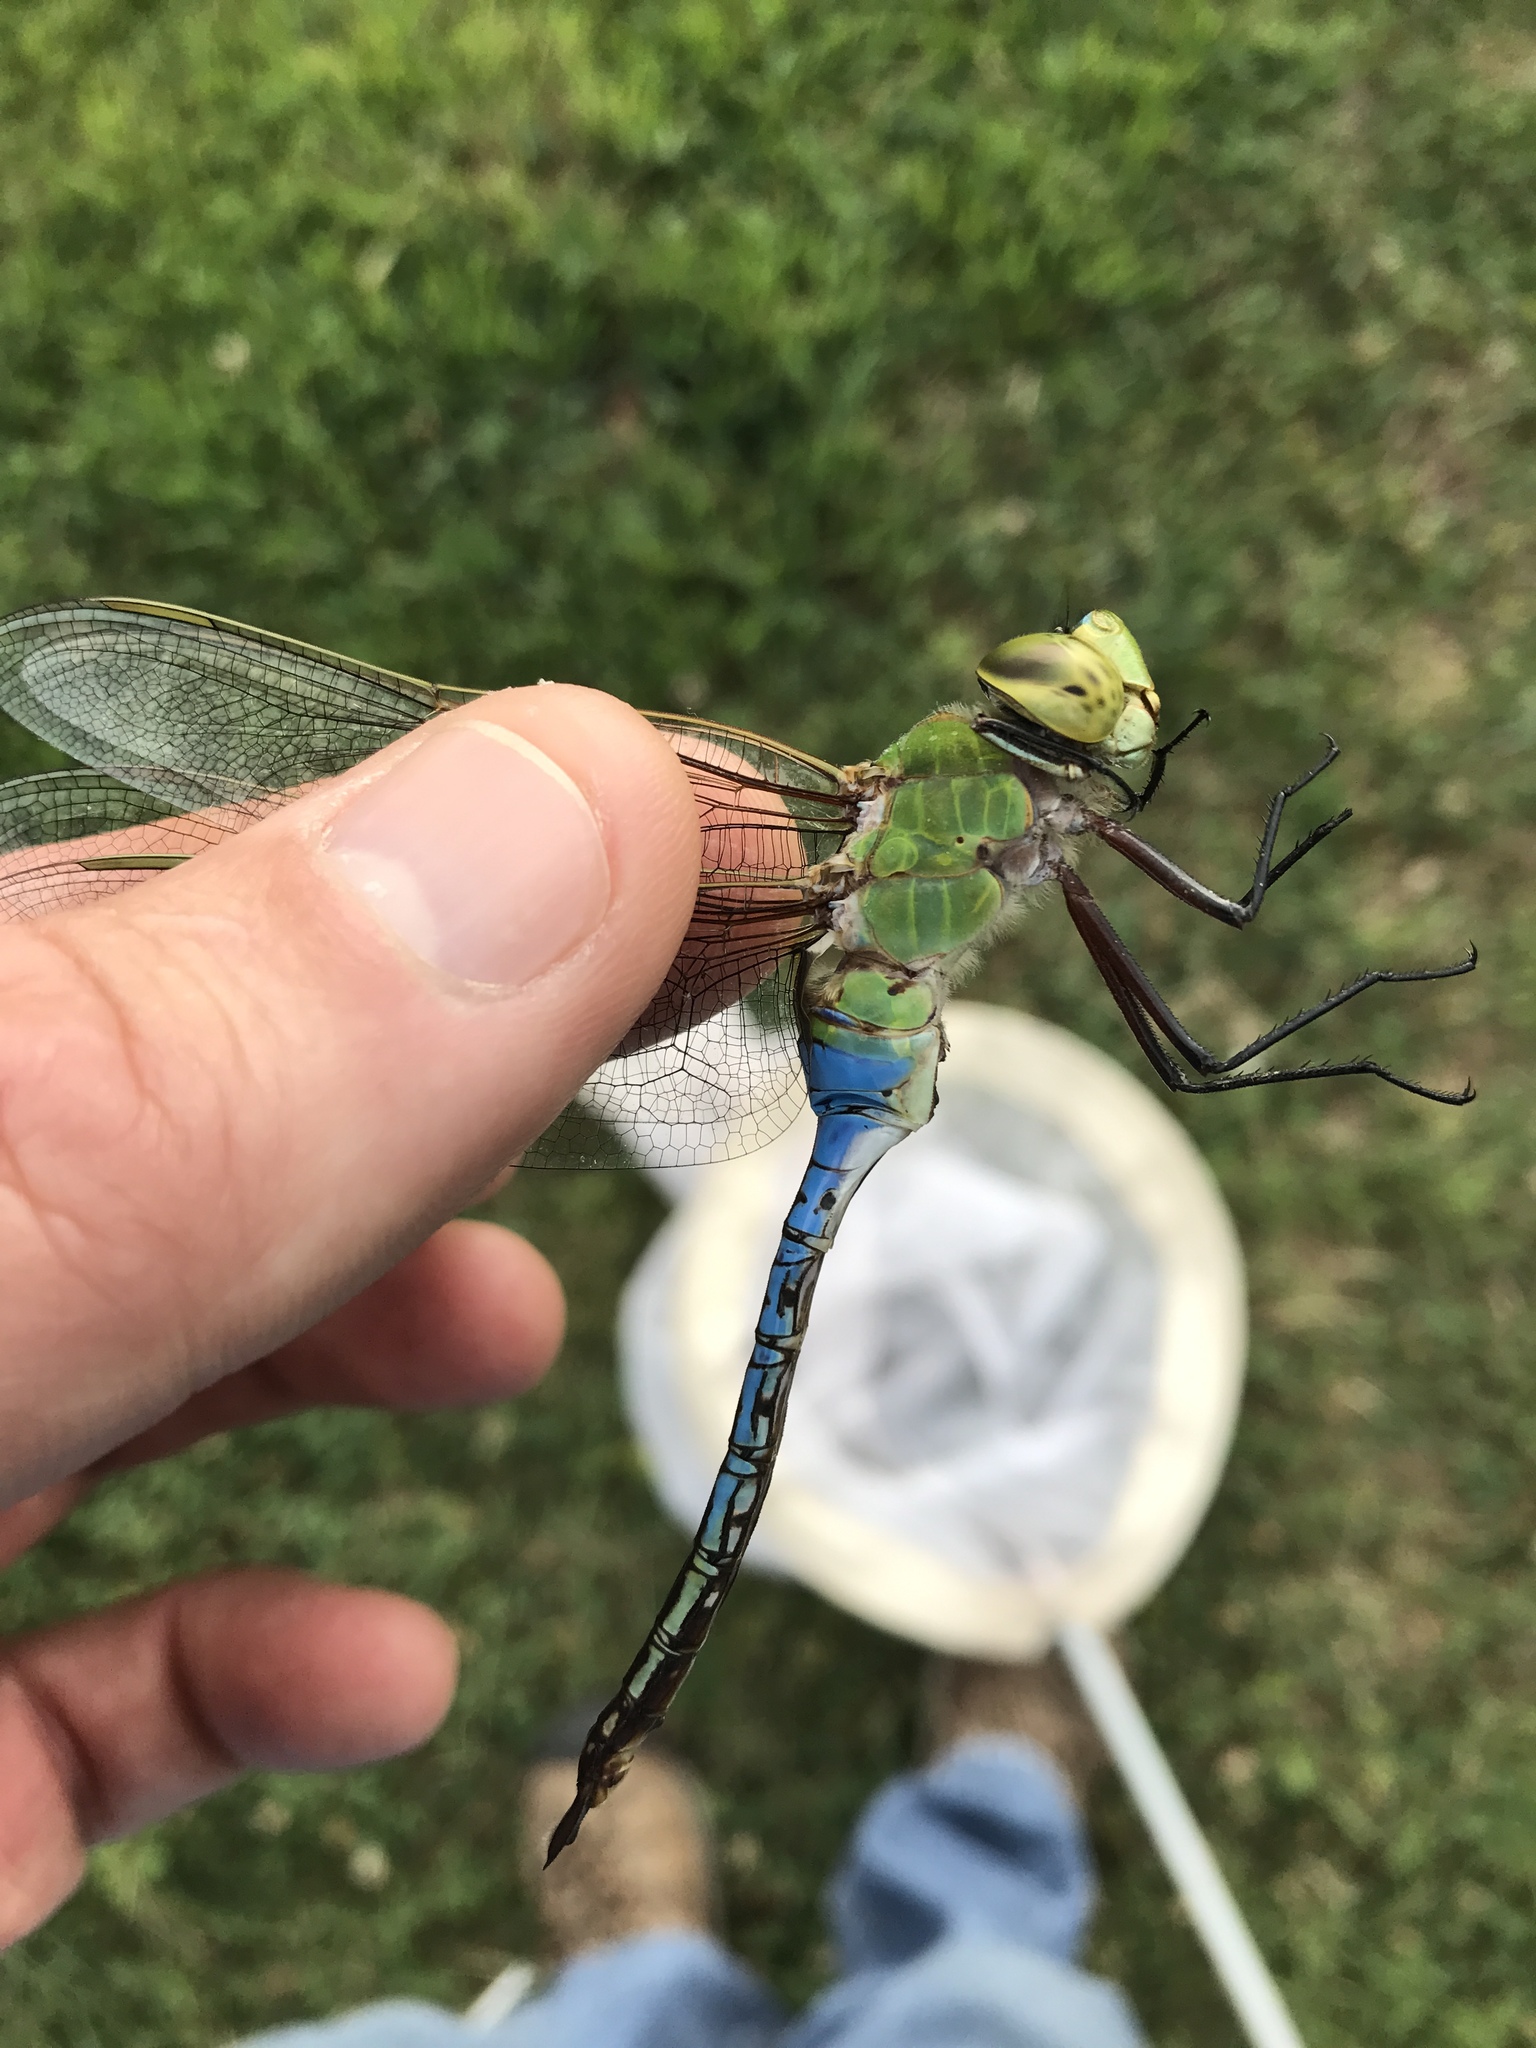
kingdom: Animalia
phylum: Arthropoda
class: Insecta
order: Odonata
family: Aeshnidae
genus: Anax
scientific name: Anax junius
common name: Common green darner
